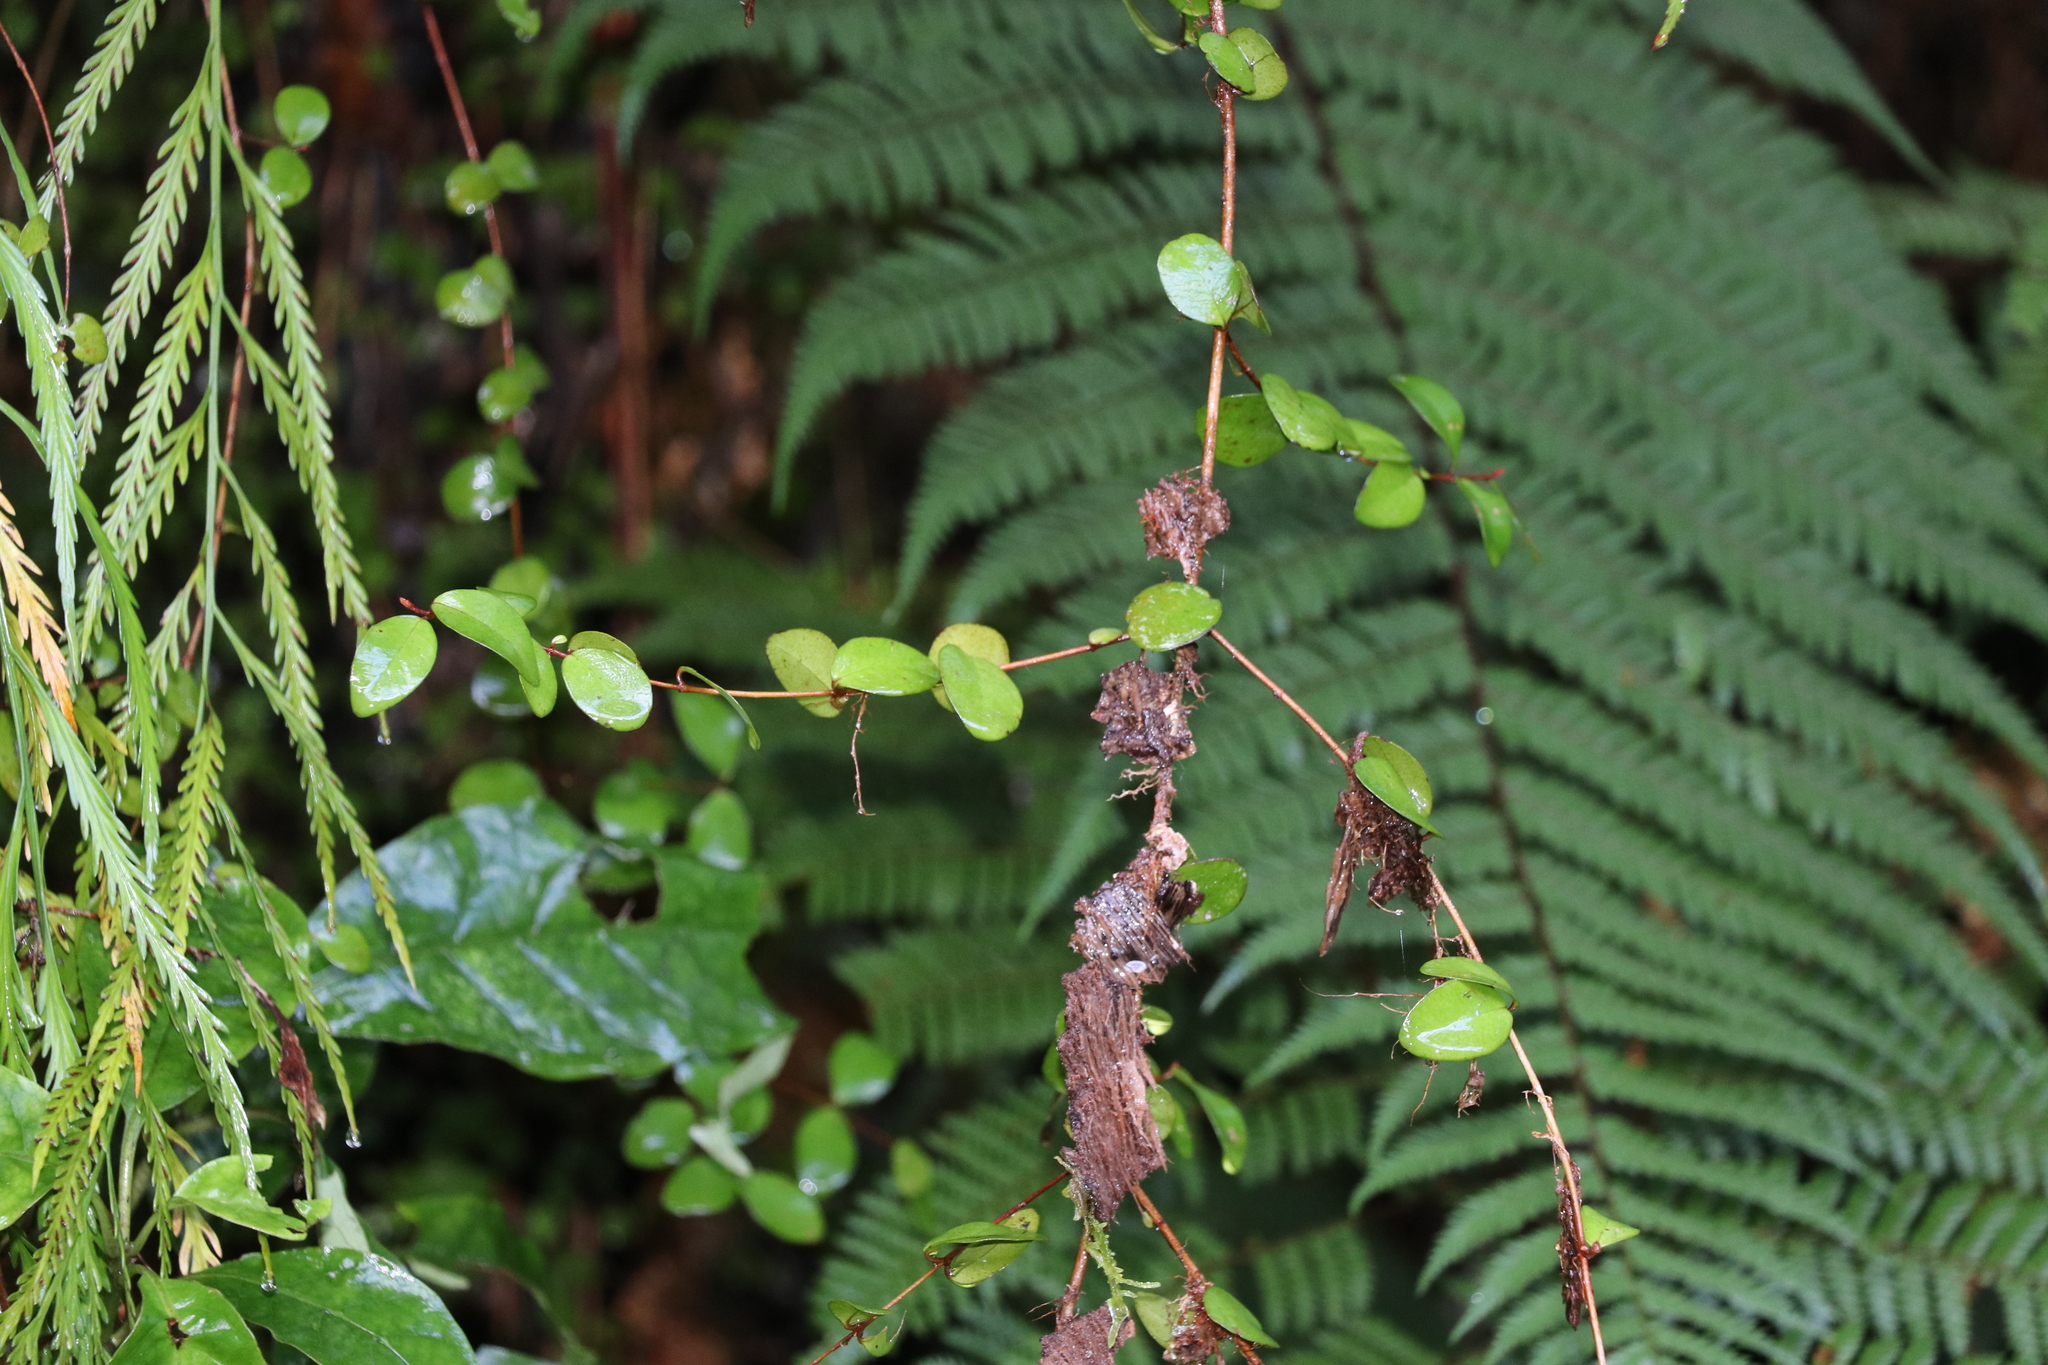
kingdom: Plantae
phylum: Tracheophyta
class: Magnoliopsida
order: Myrtales
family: Myrtaceae
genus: Metrosideros
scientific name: Metrosideros fulgens
